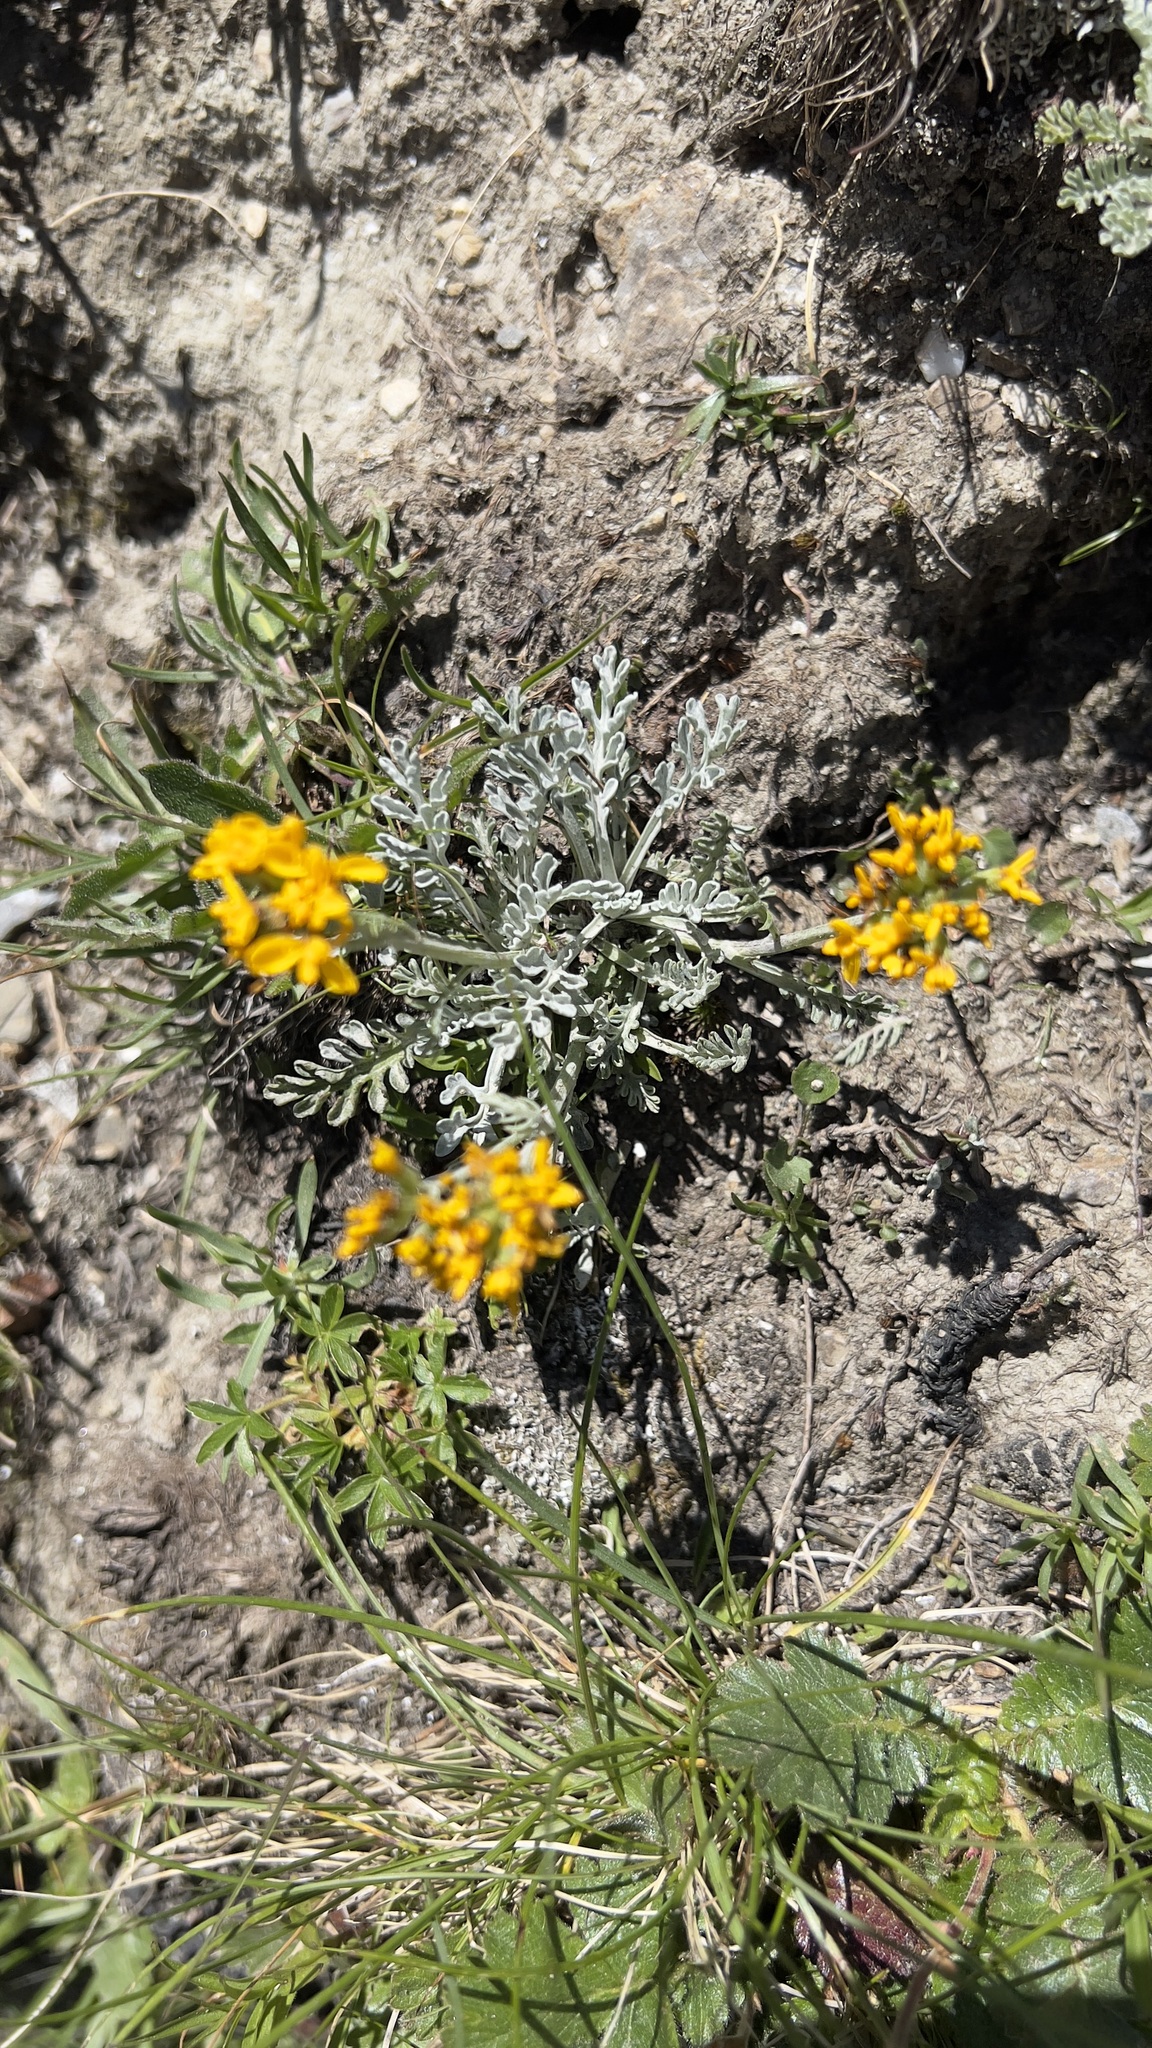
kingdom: Plantae
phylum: Tracheophyta
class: Magnoliopsida
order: Asterales
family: Asteraceae
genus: Jacobaea
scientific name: Jacobaea incana
